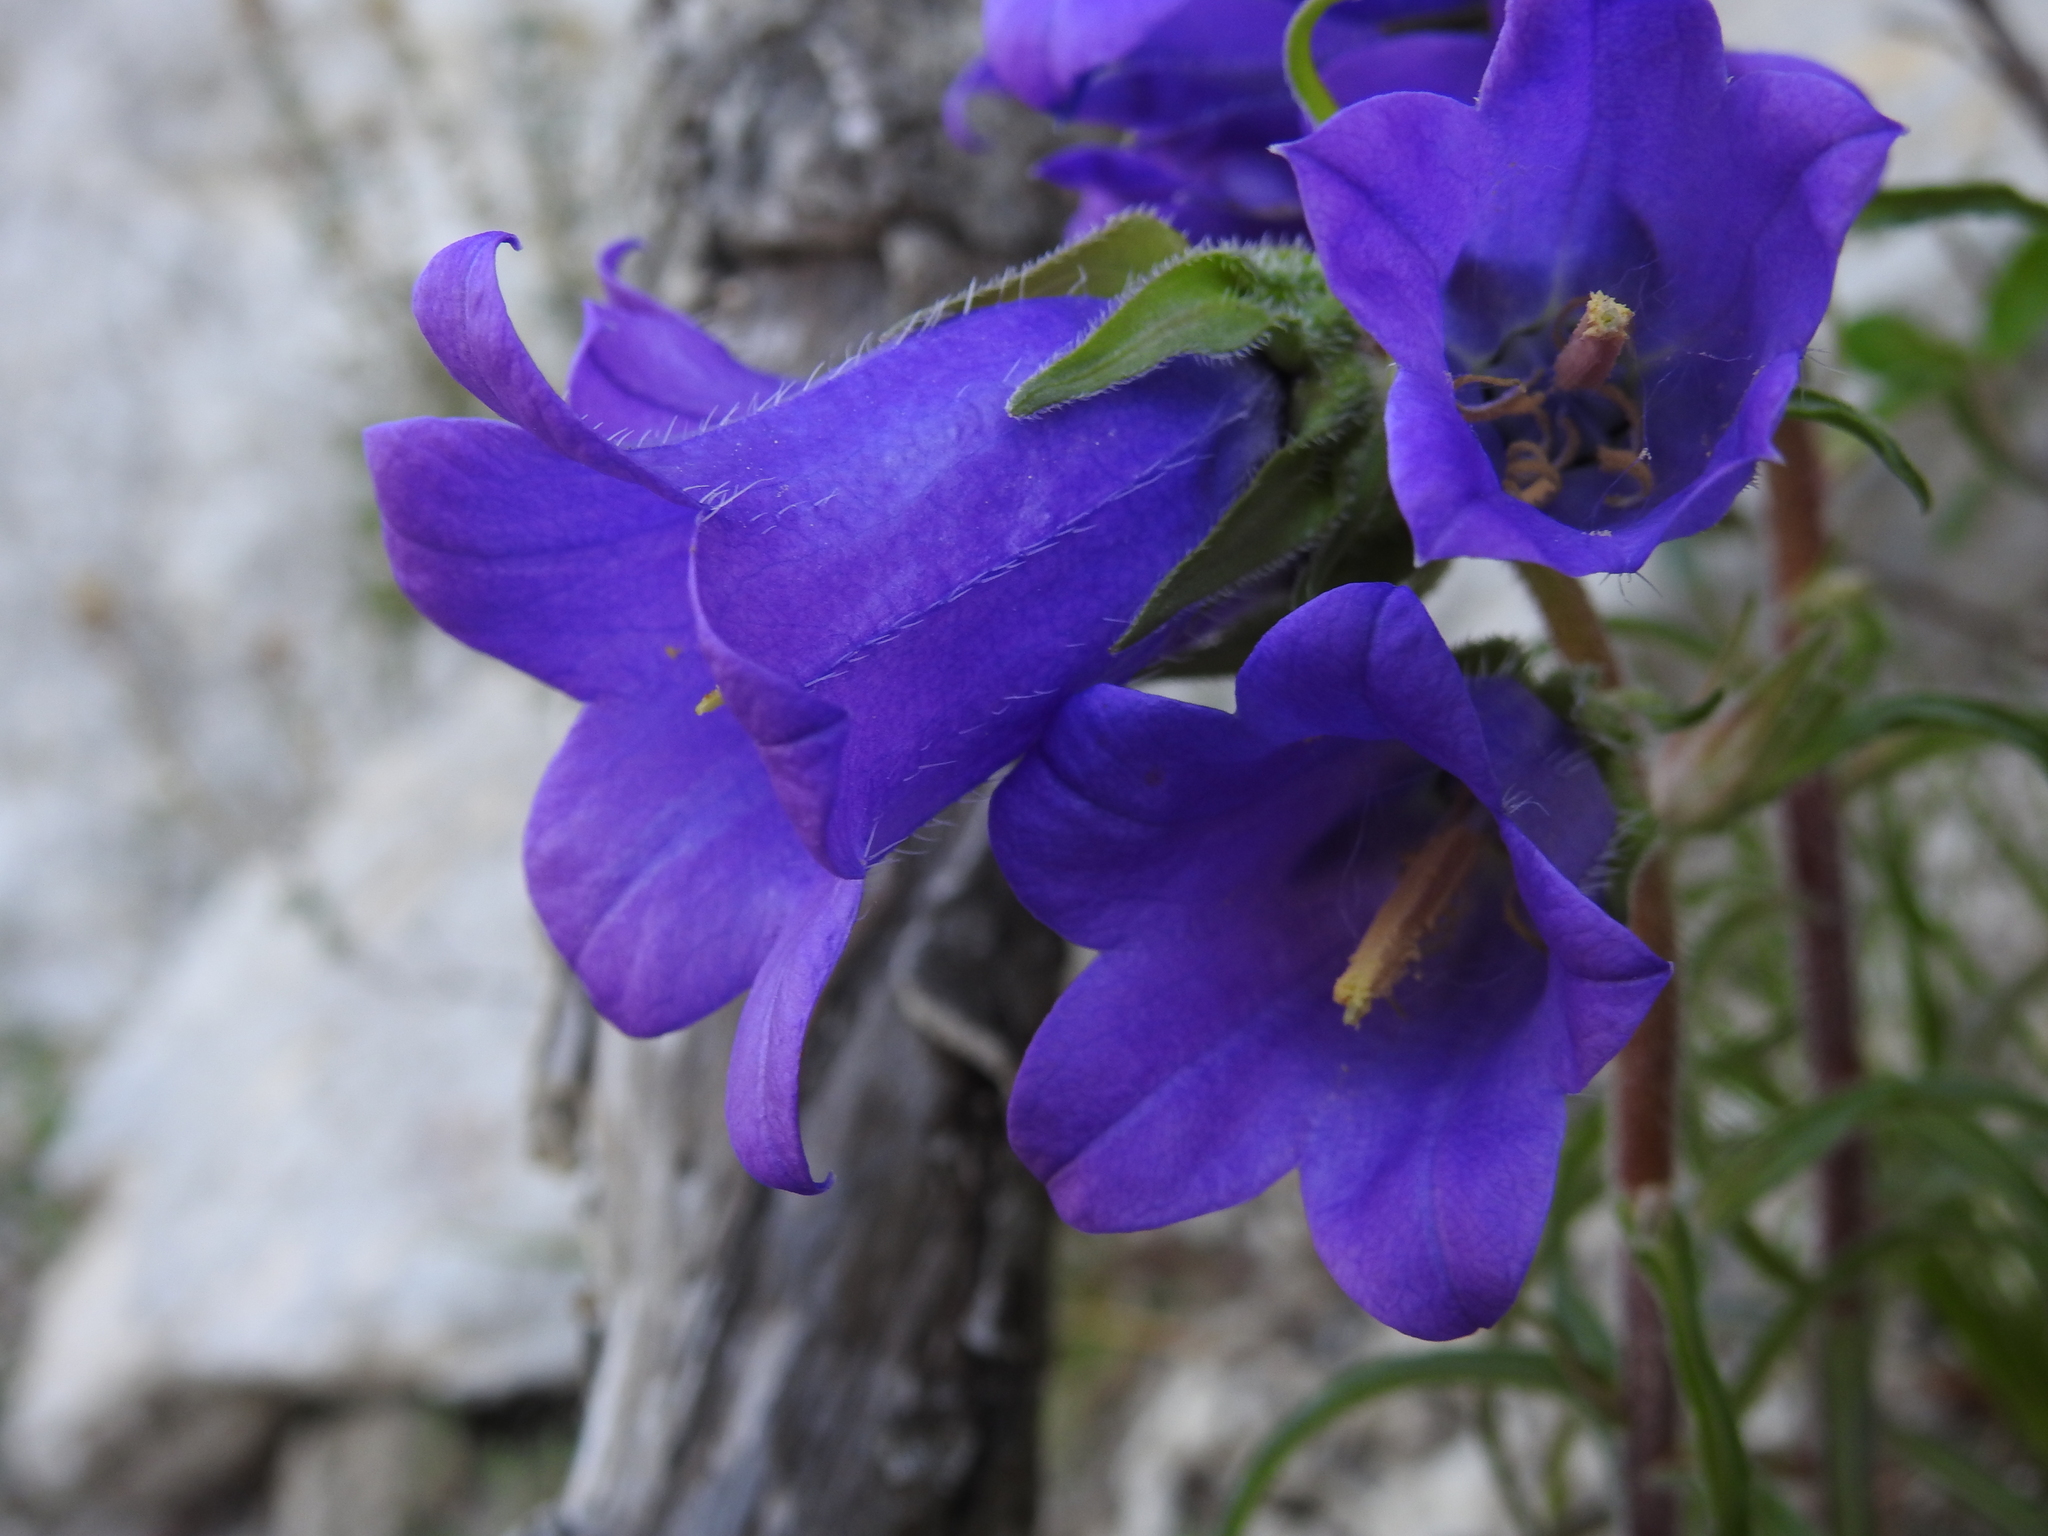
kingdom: Plantae
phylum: Tracheophyta
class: Magnoliopsida
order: Asterales
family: Campanulaceae
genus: Campanula
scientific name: Campanula speciosa
